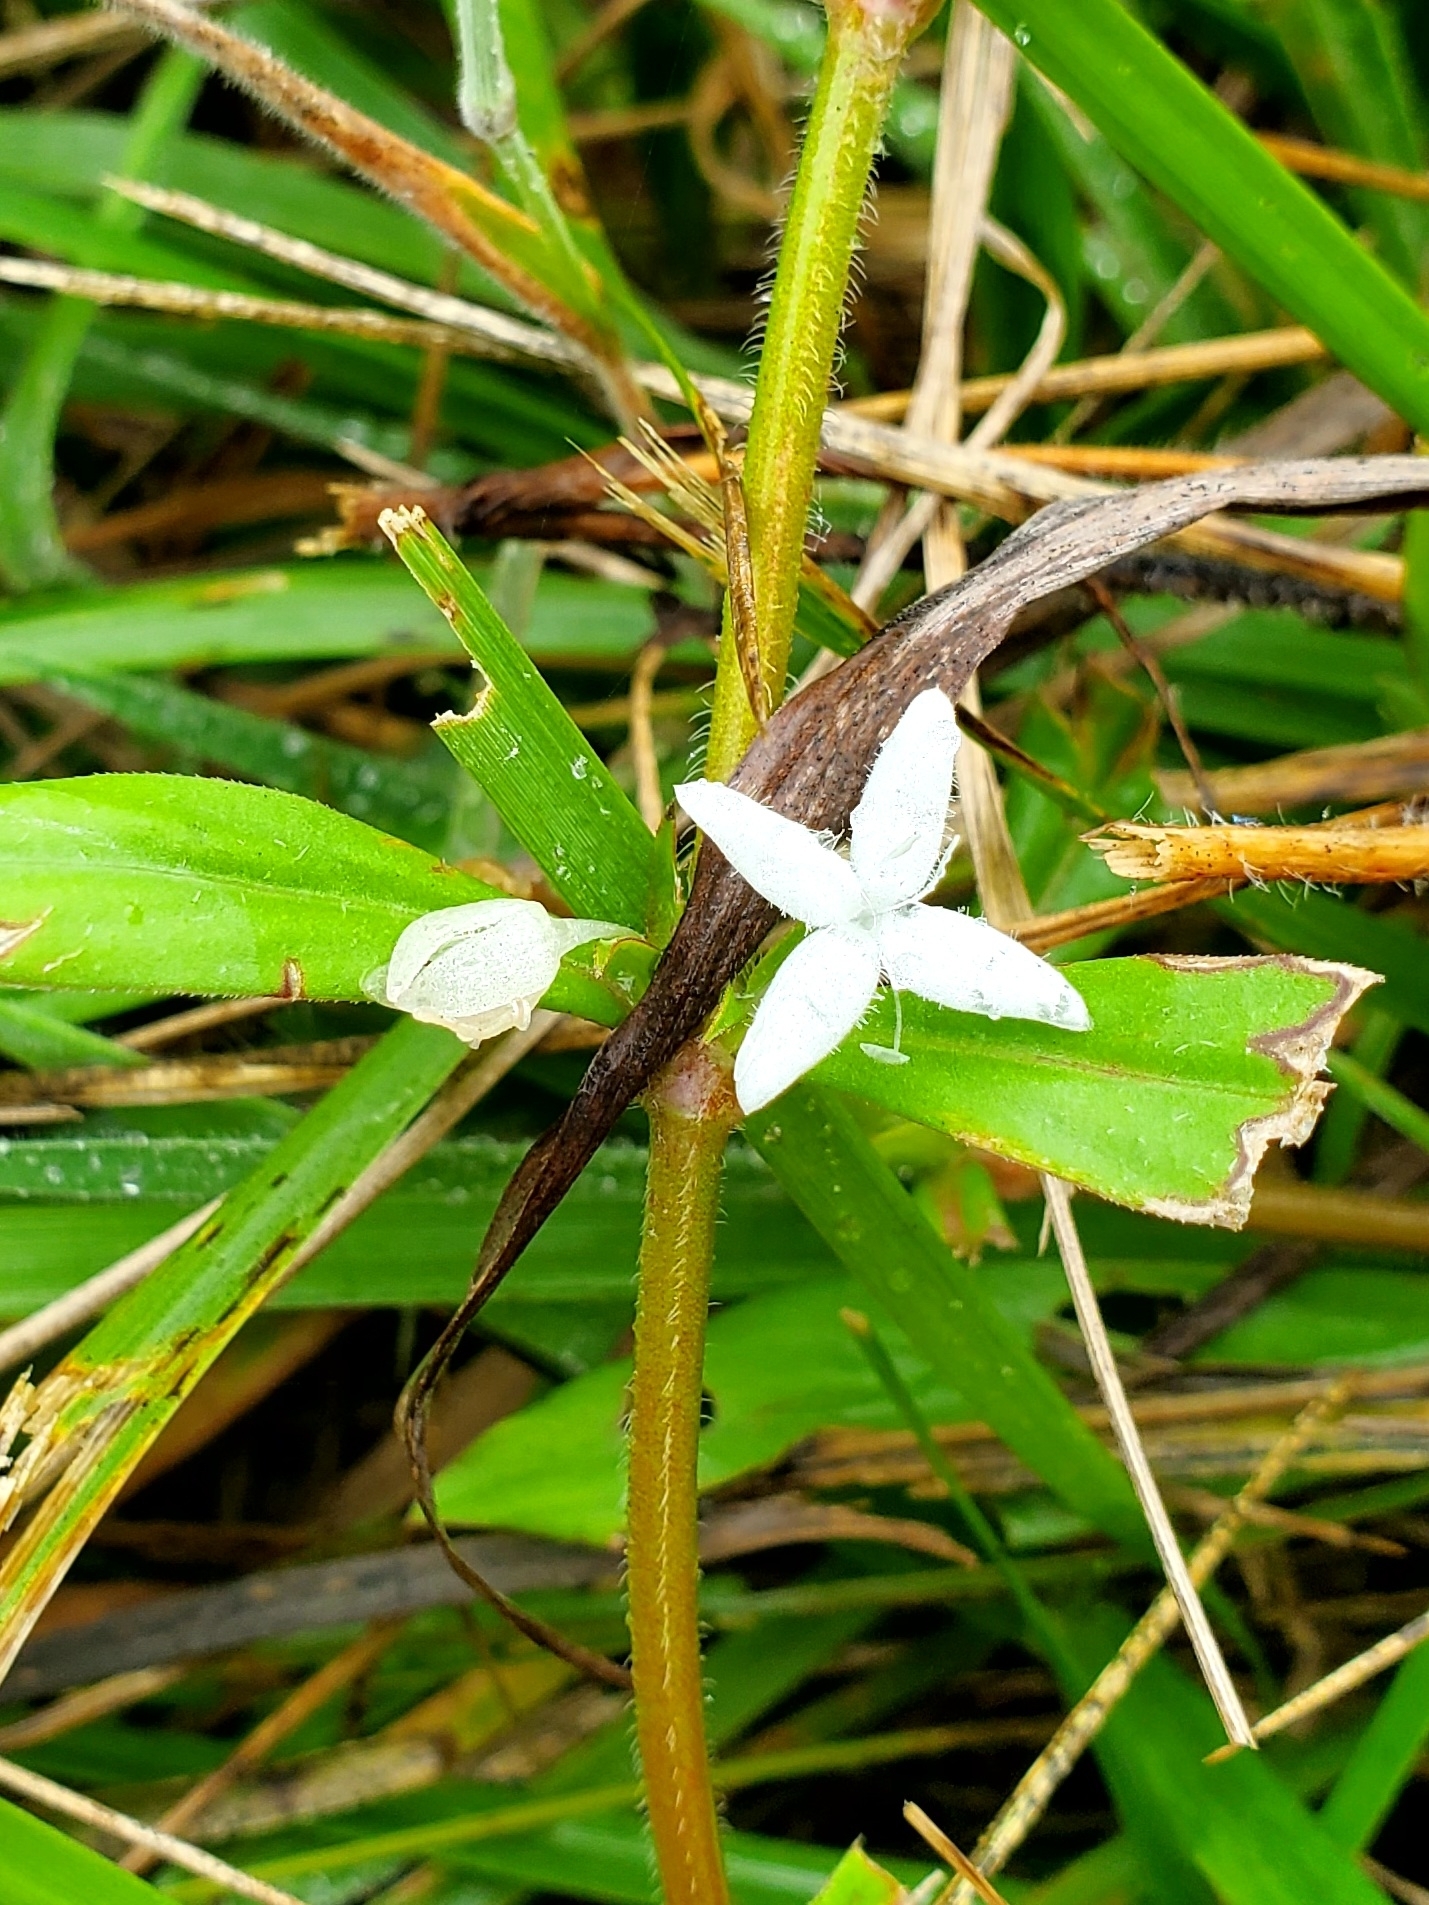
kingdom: Plantae
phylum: Tracheophyta
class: Magnoliopsida
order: Gentianales
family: Rubiaceae
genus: Diodia
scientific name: Diodia virginiana
